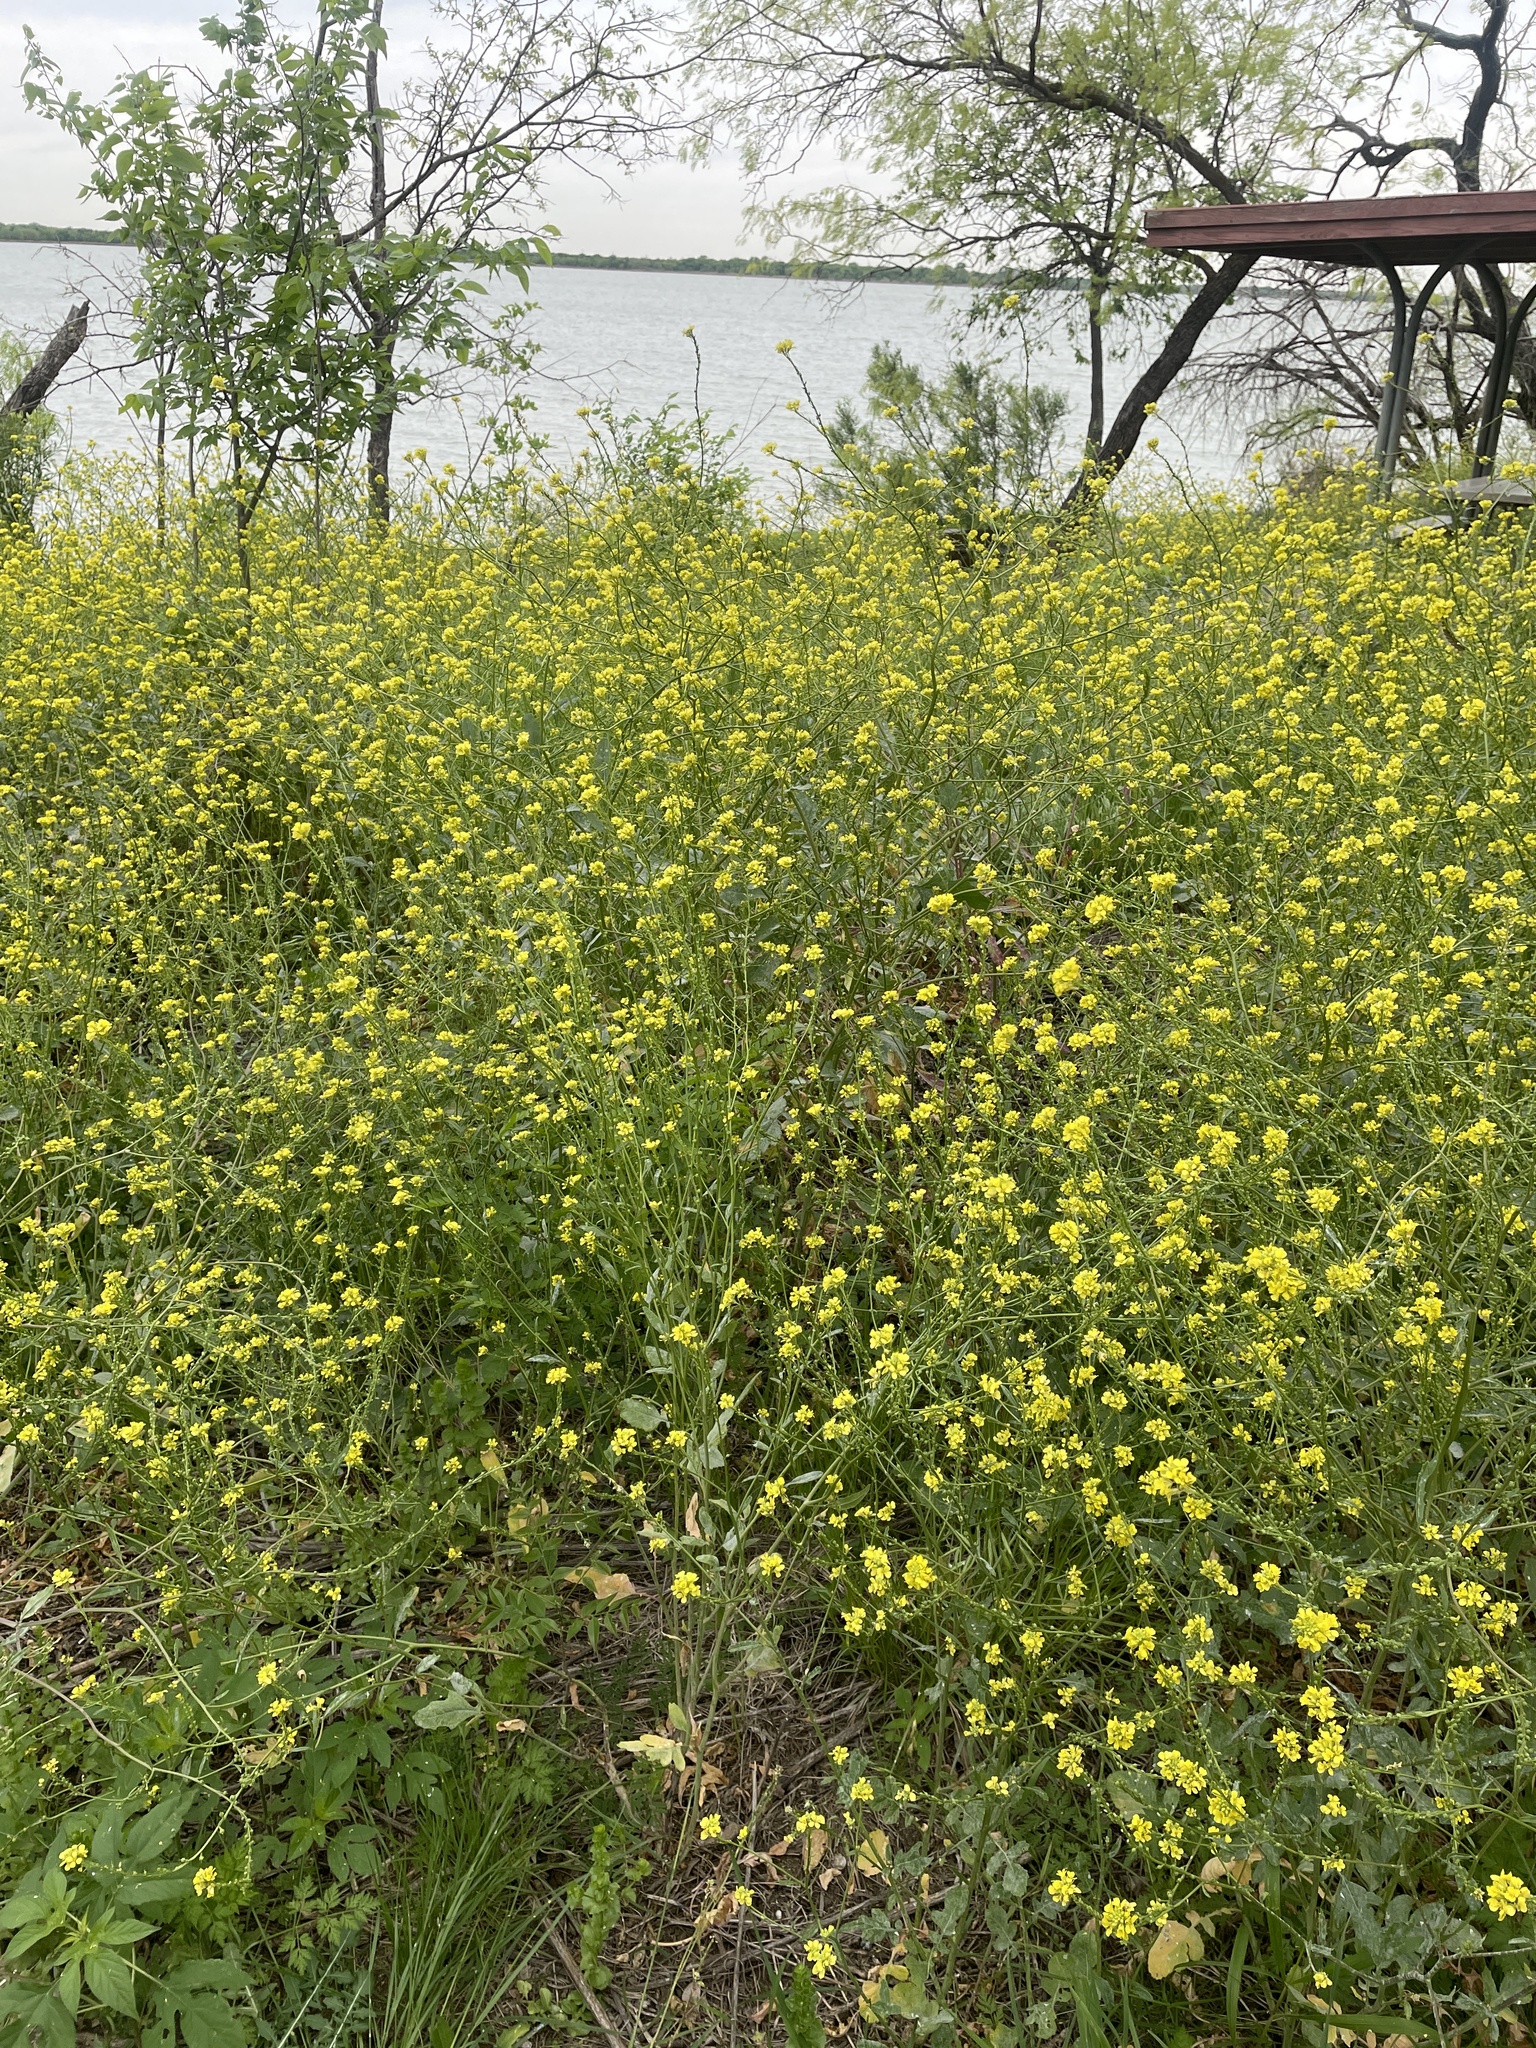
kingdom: Plantae
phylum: Tracheophyta
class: Magnoliopsida
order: Brassicales
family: Brassicaceae
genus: Rapistrum
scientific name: Rapistrum rugosum
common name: Annual bastardcabbage
